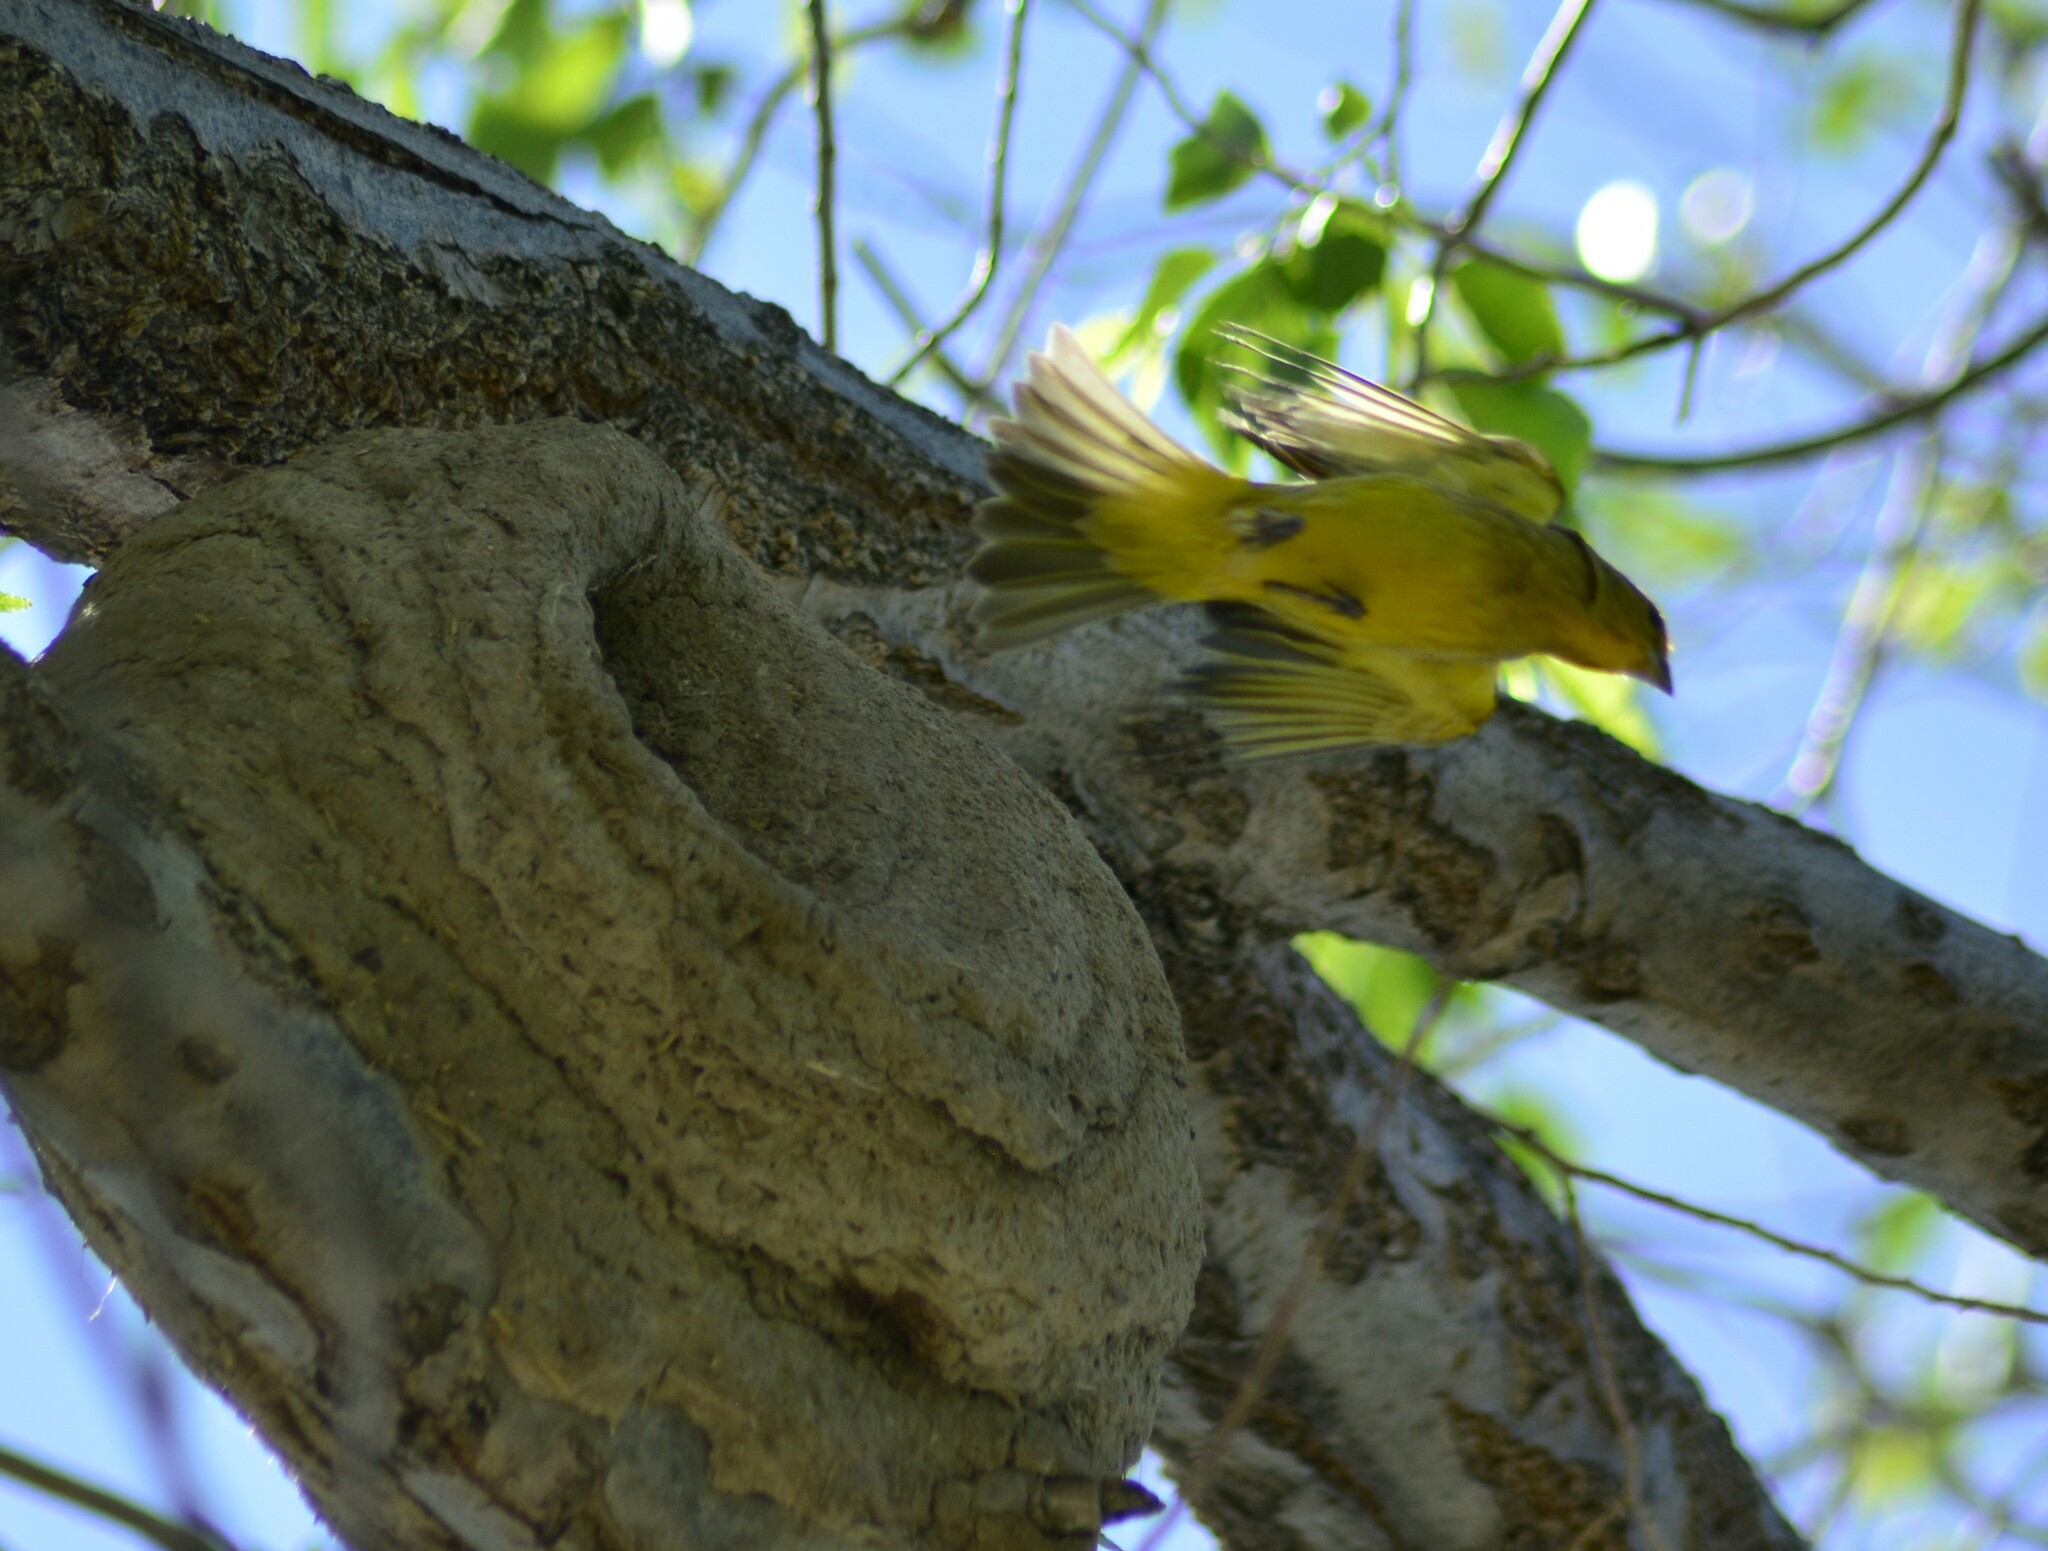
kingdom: Animalia
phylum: Chordata
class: Aves
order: Passeriformes
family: Thraupidae
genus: Sicalis
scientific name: Sicalis flaveola
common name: Saffron finch
